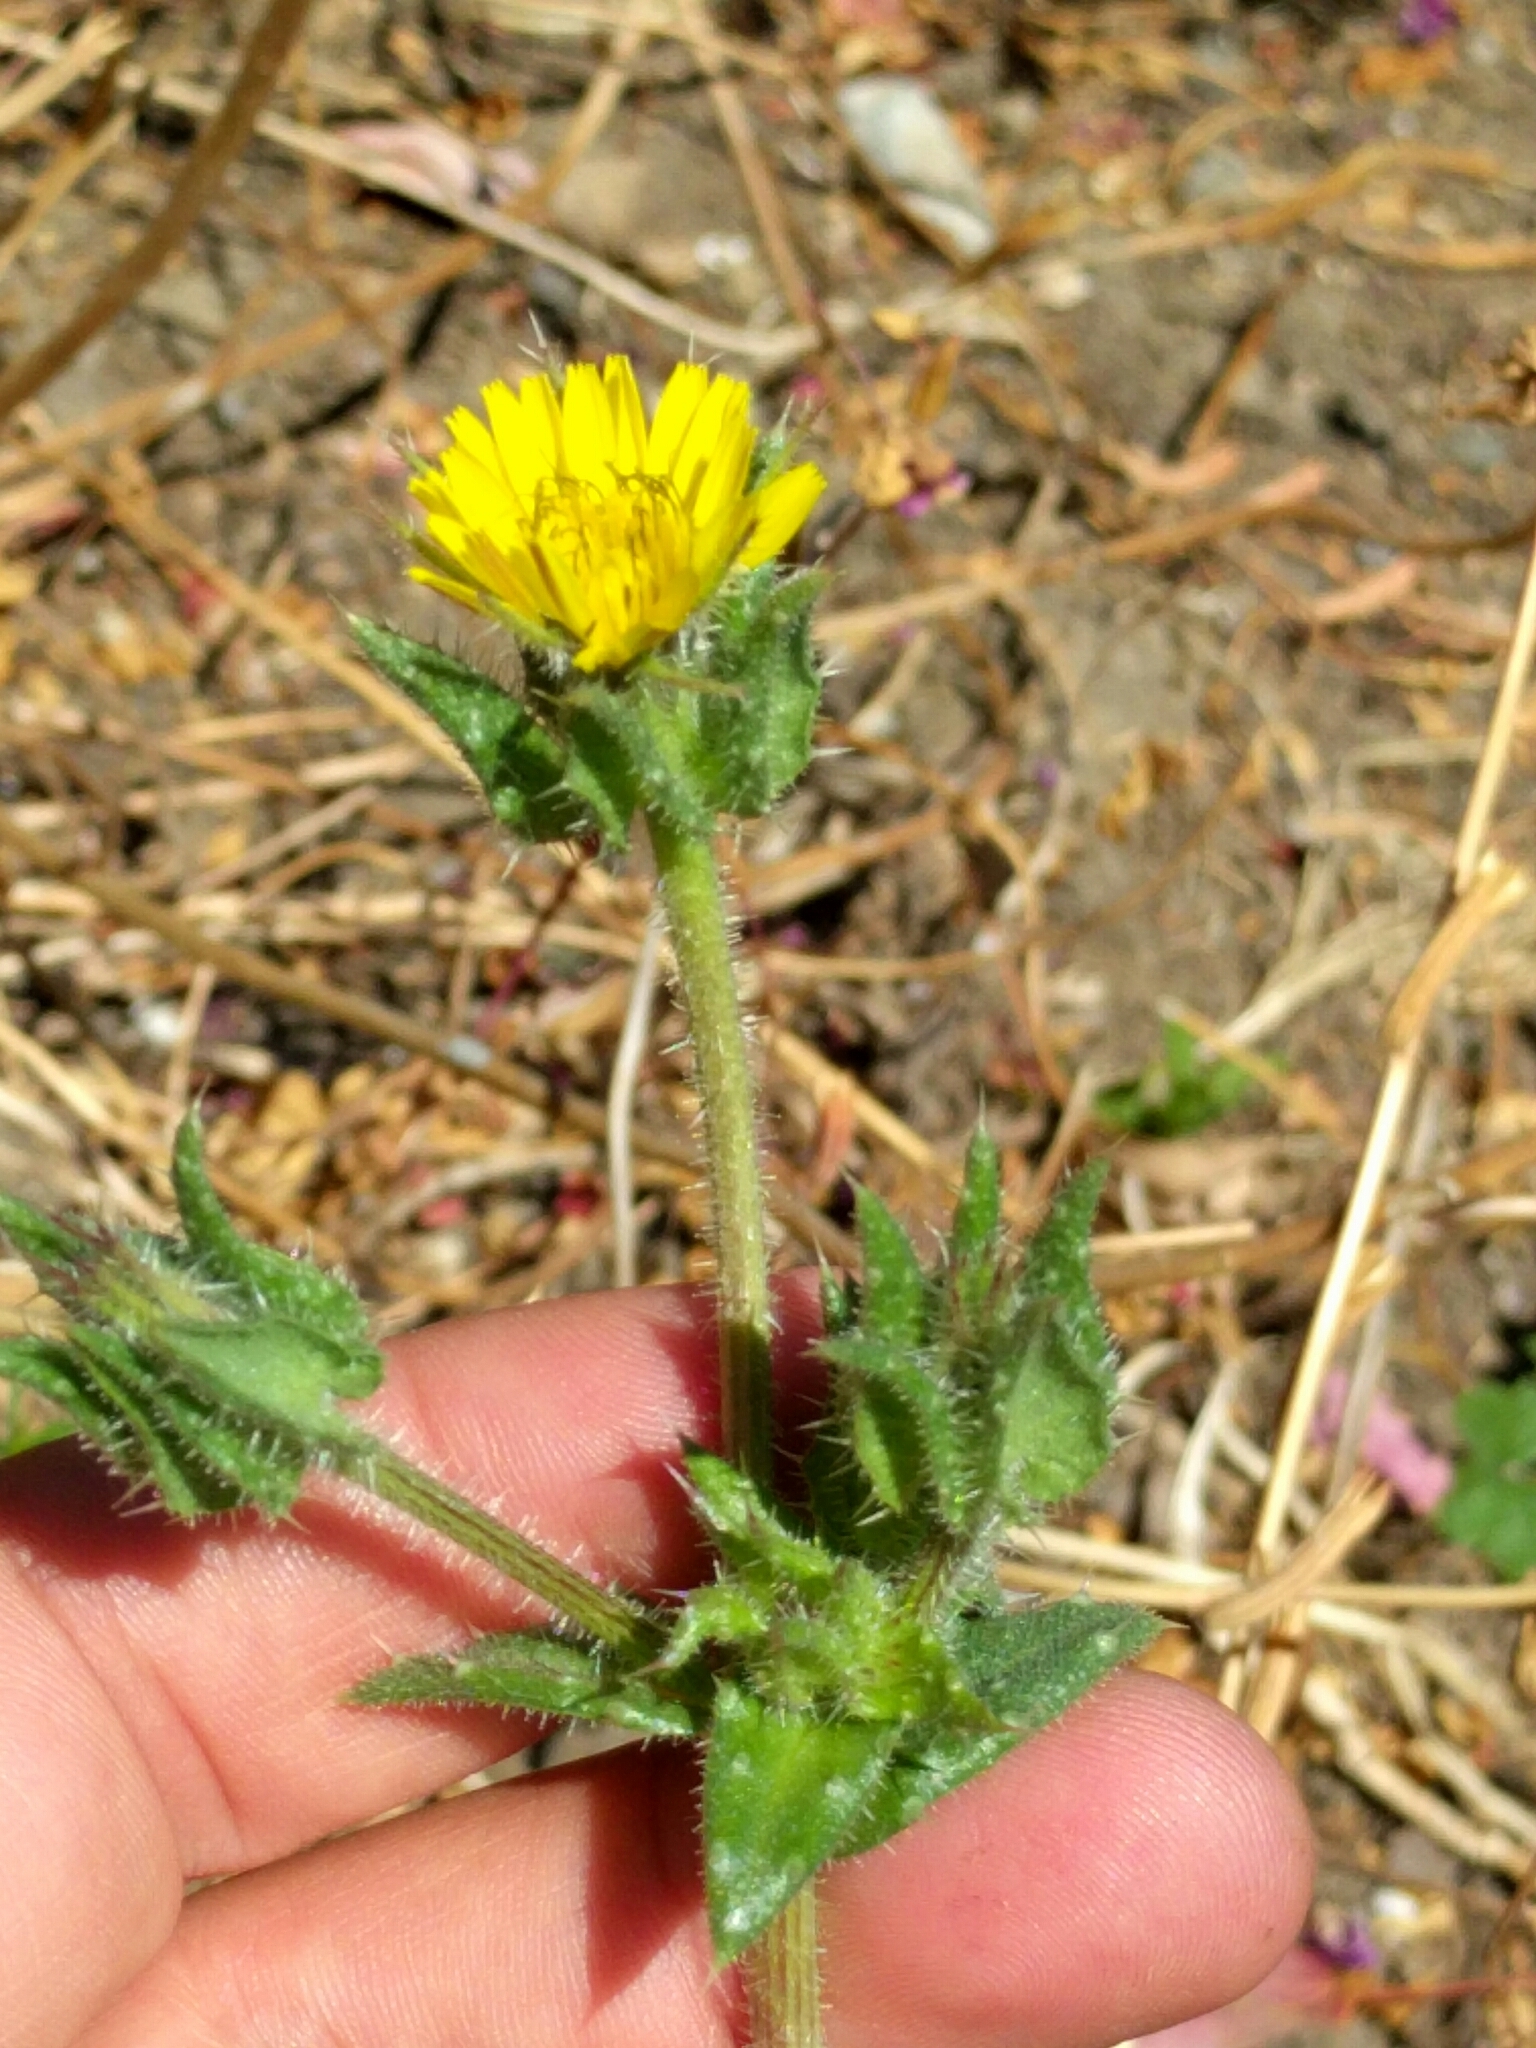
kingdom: Plantae
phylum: Tracheophyta
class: Magnoliopsida
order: Asterales
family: Asteraceae
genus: Helminthotheca
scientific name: Helminthotheca echioides
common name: Ox-tongue
